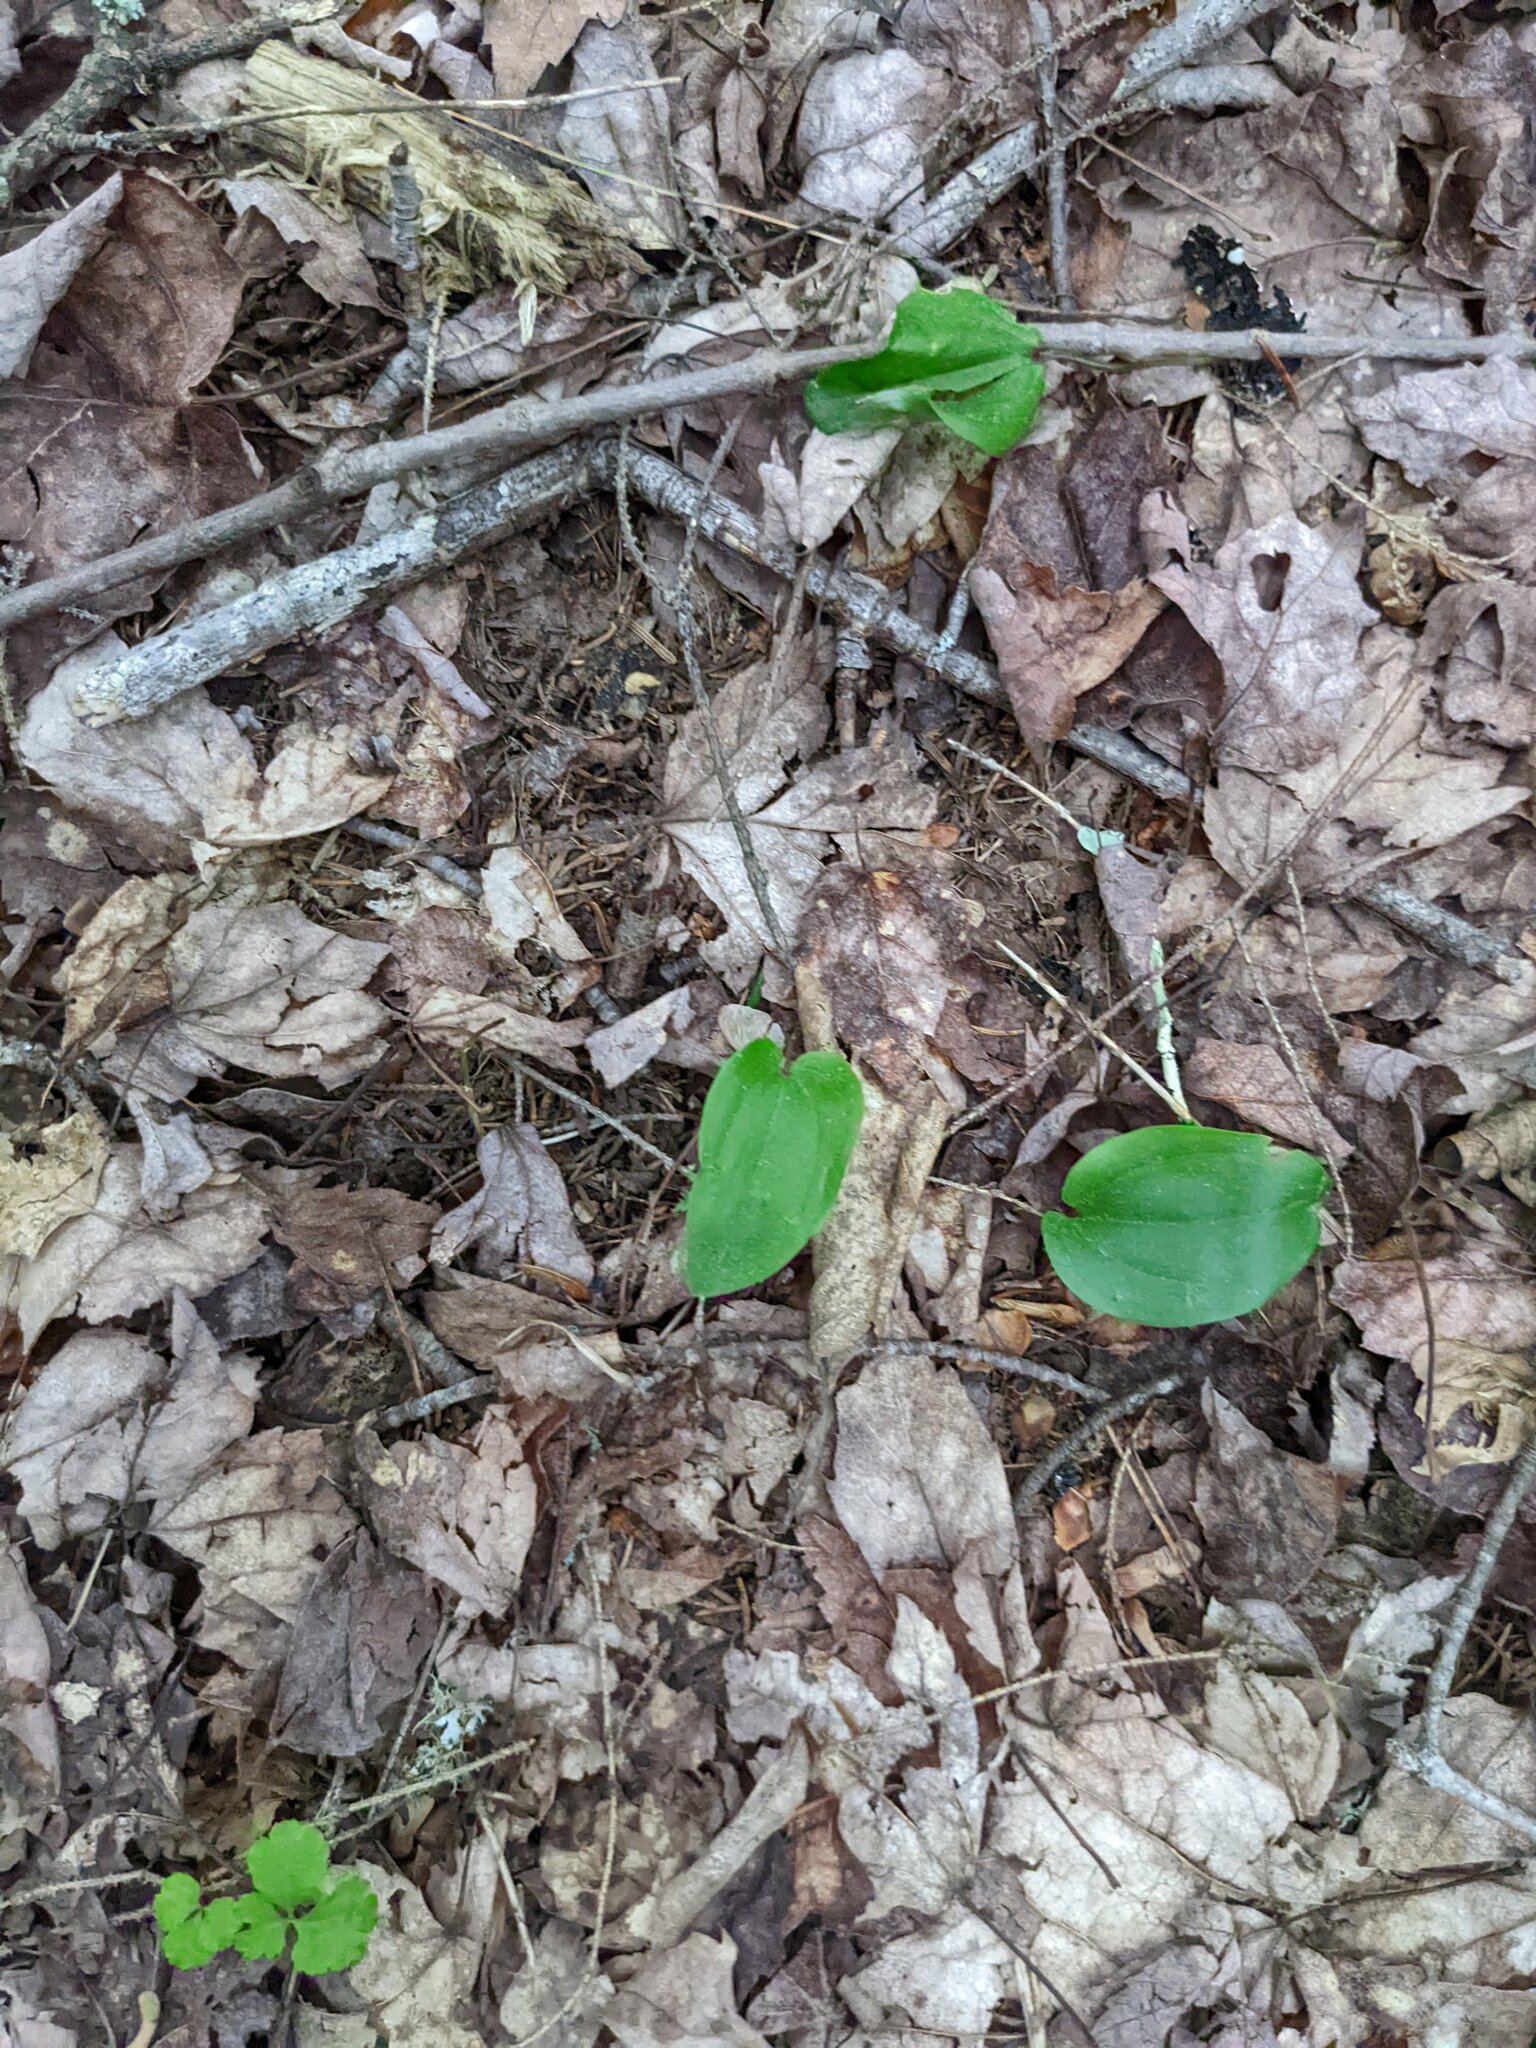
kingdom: Plantae
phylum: Tracheophyta
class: Liliopsida
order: Asparagales
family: Asparagaceae
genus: Maianthemum
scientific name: Maianthemum canadense
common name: False lily-of-the-valley
